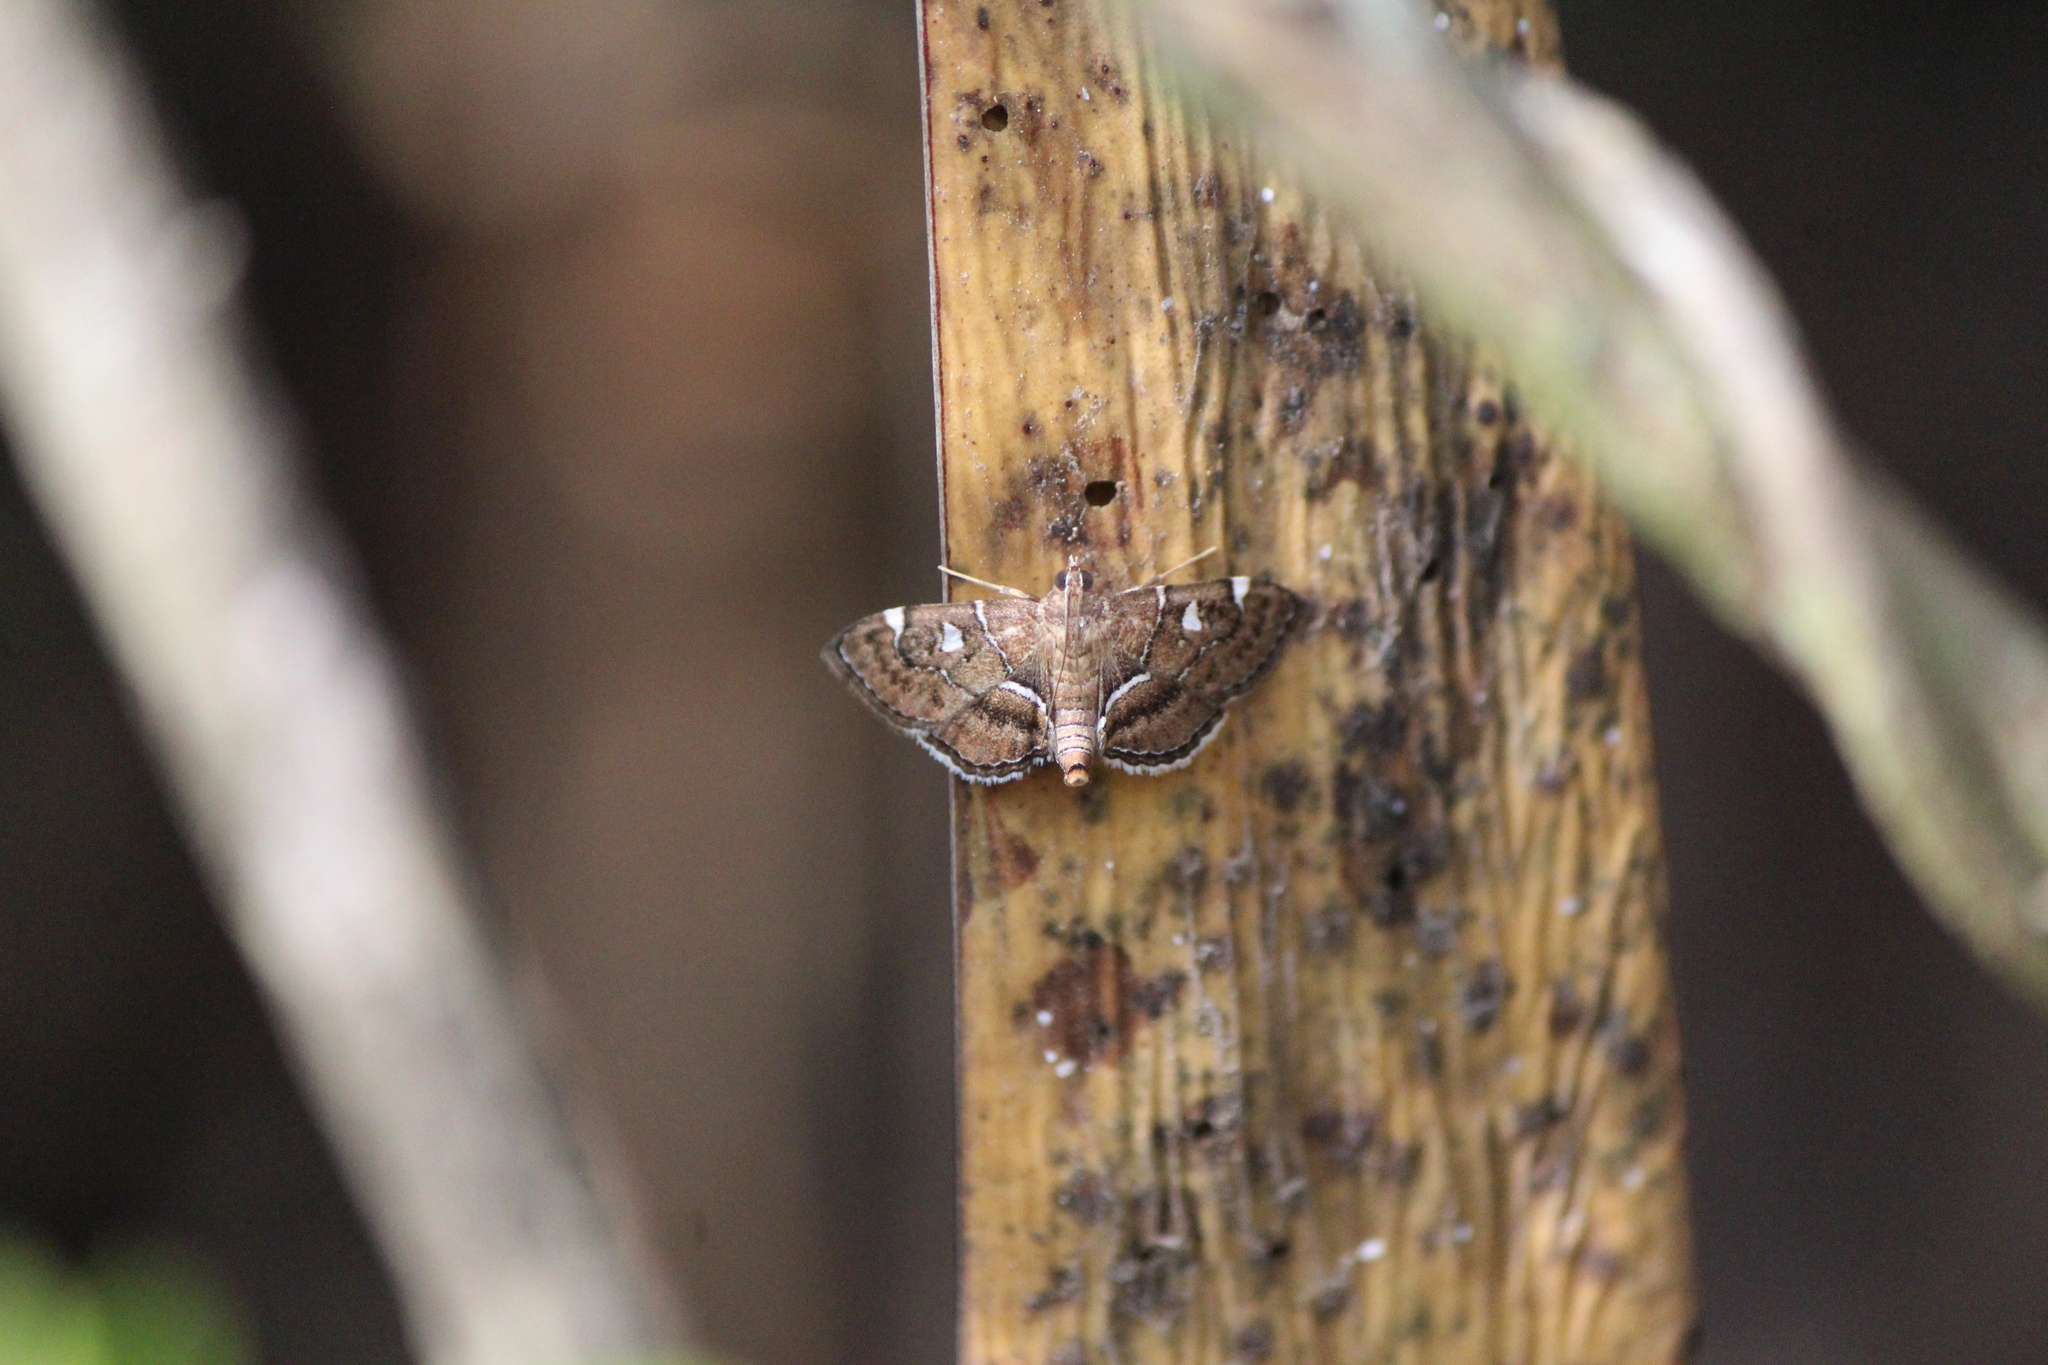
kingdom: Animalia
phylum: Arthropoda
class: Insecta
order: Lepidoptera
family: Crambidae
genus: Lamprosema
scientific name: Lamprosema victoriae
